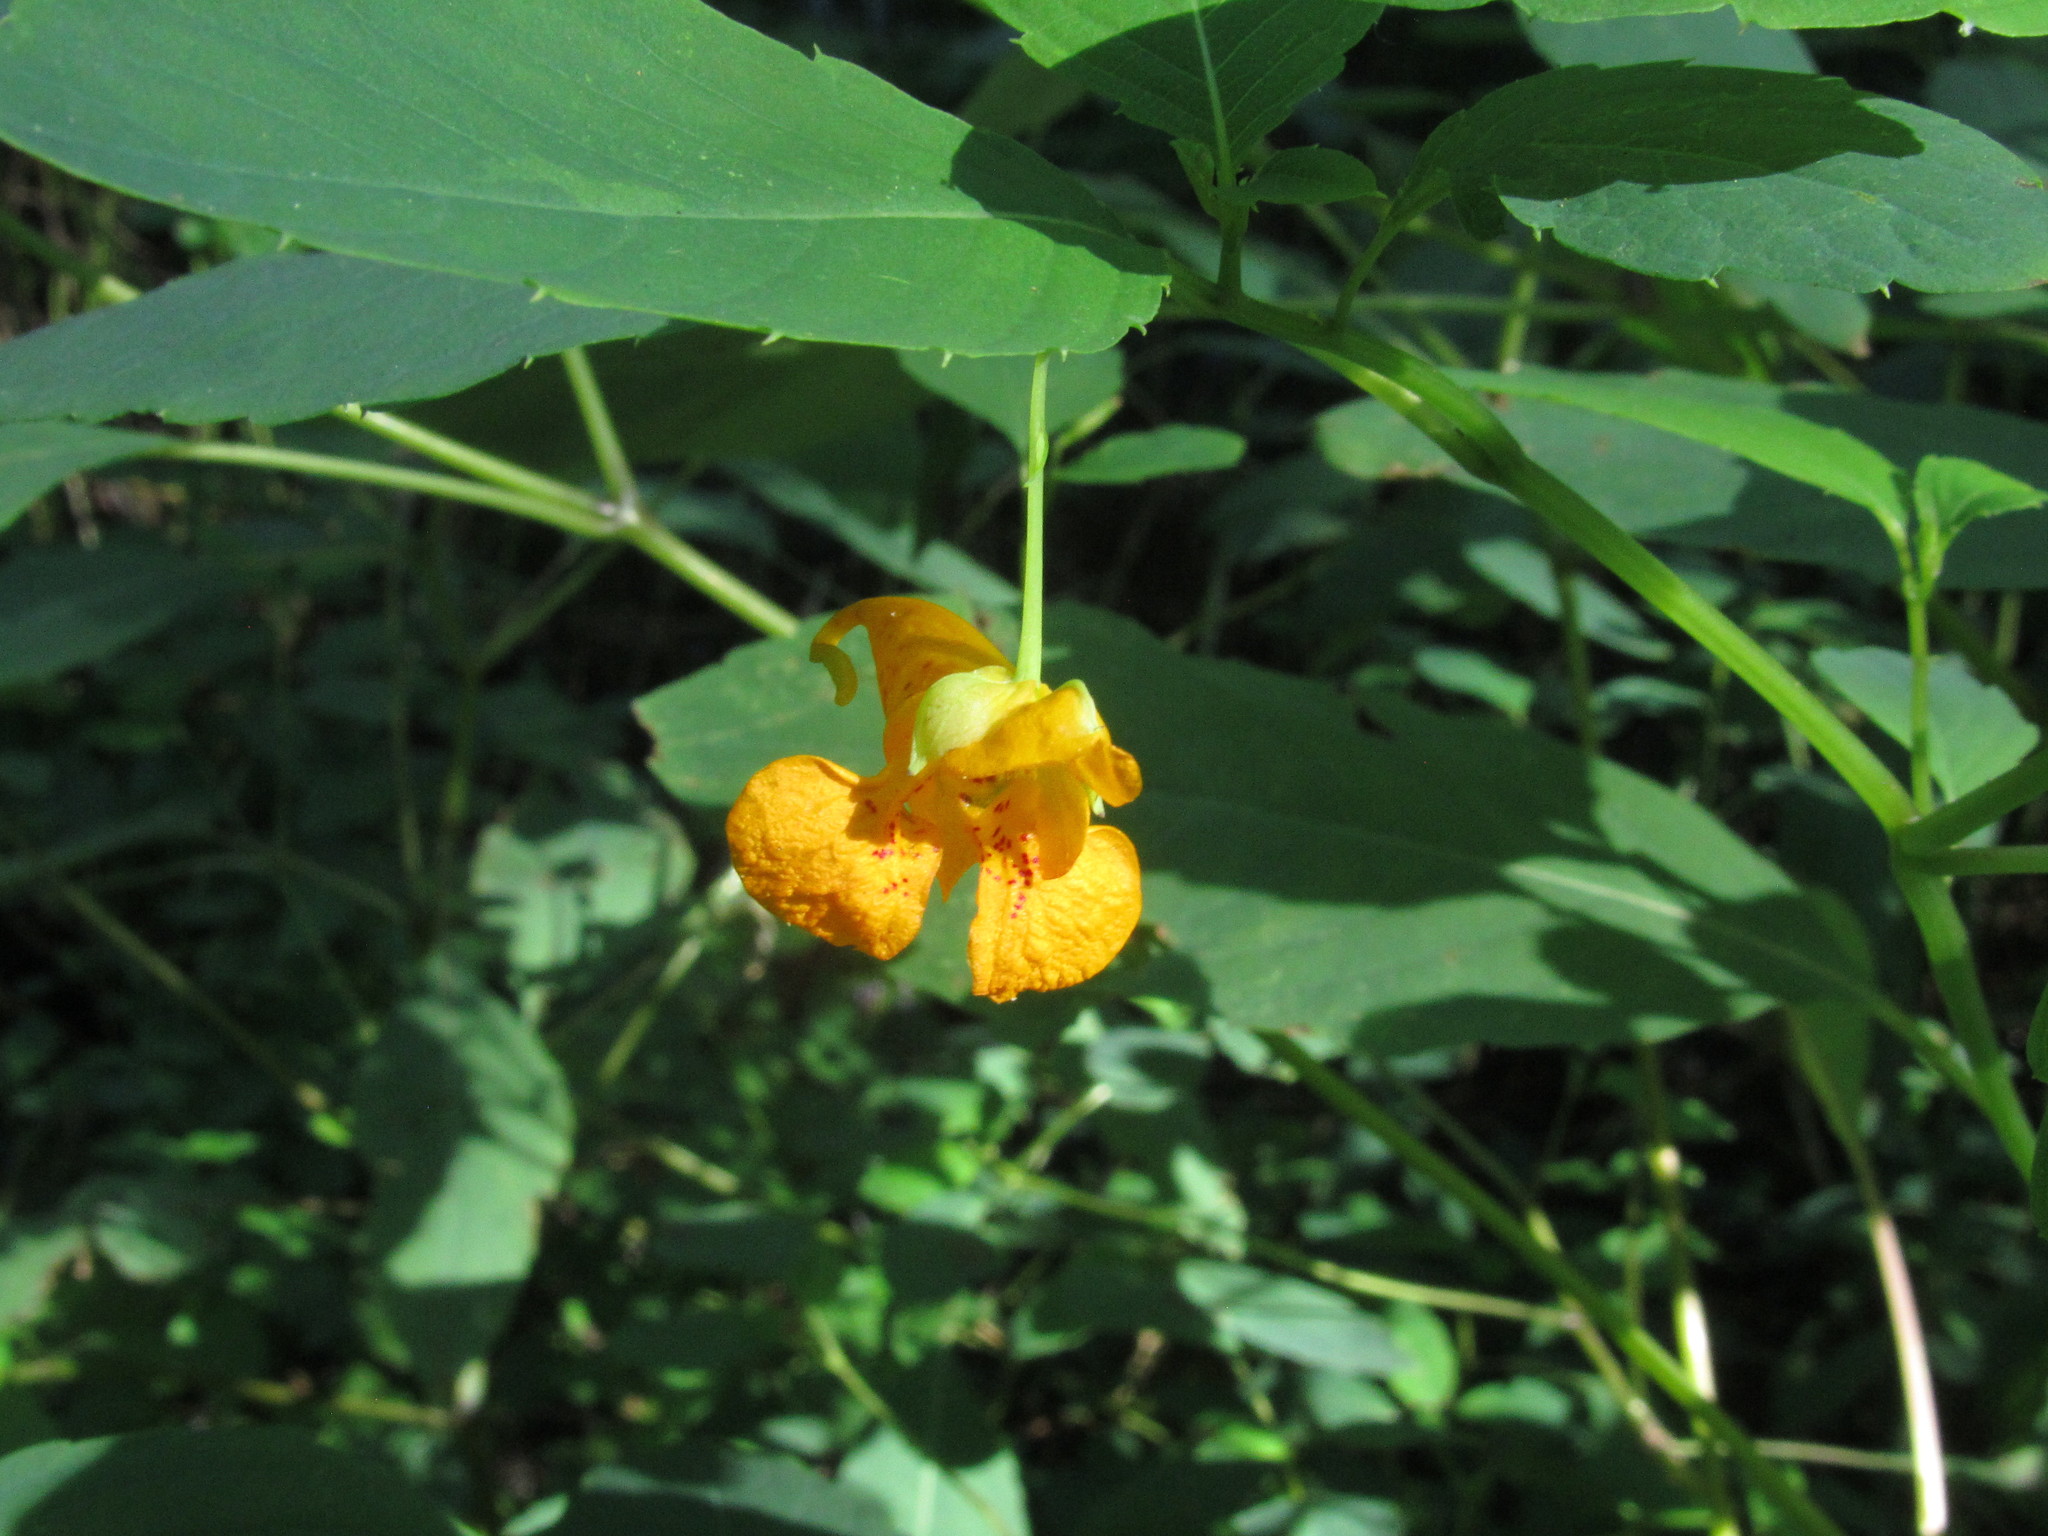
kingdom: Plantae
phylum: Tracheophyta
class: Magnoliopsida
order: Ericales
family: Balsaminaceae
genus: Impatiens
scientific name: Impatiens capensis
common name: Orange balsam
